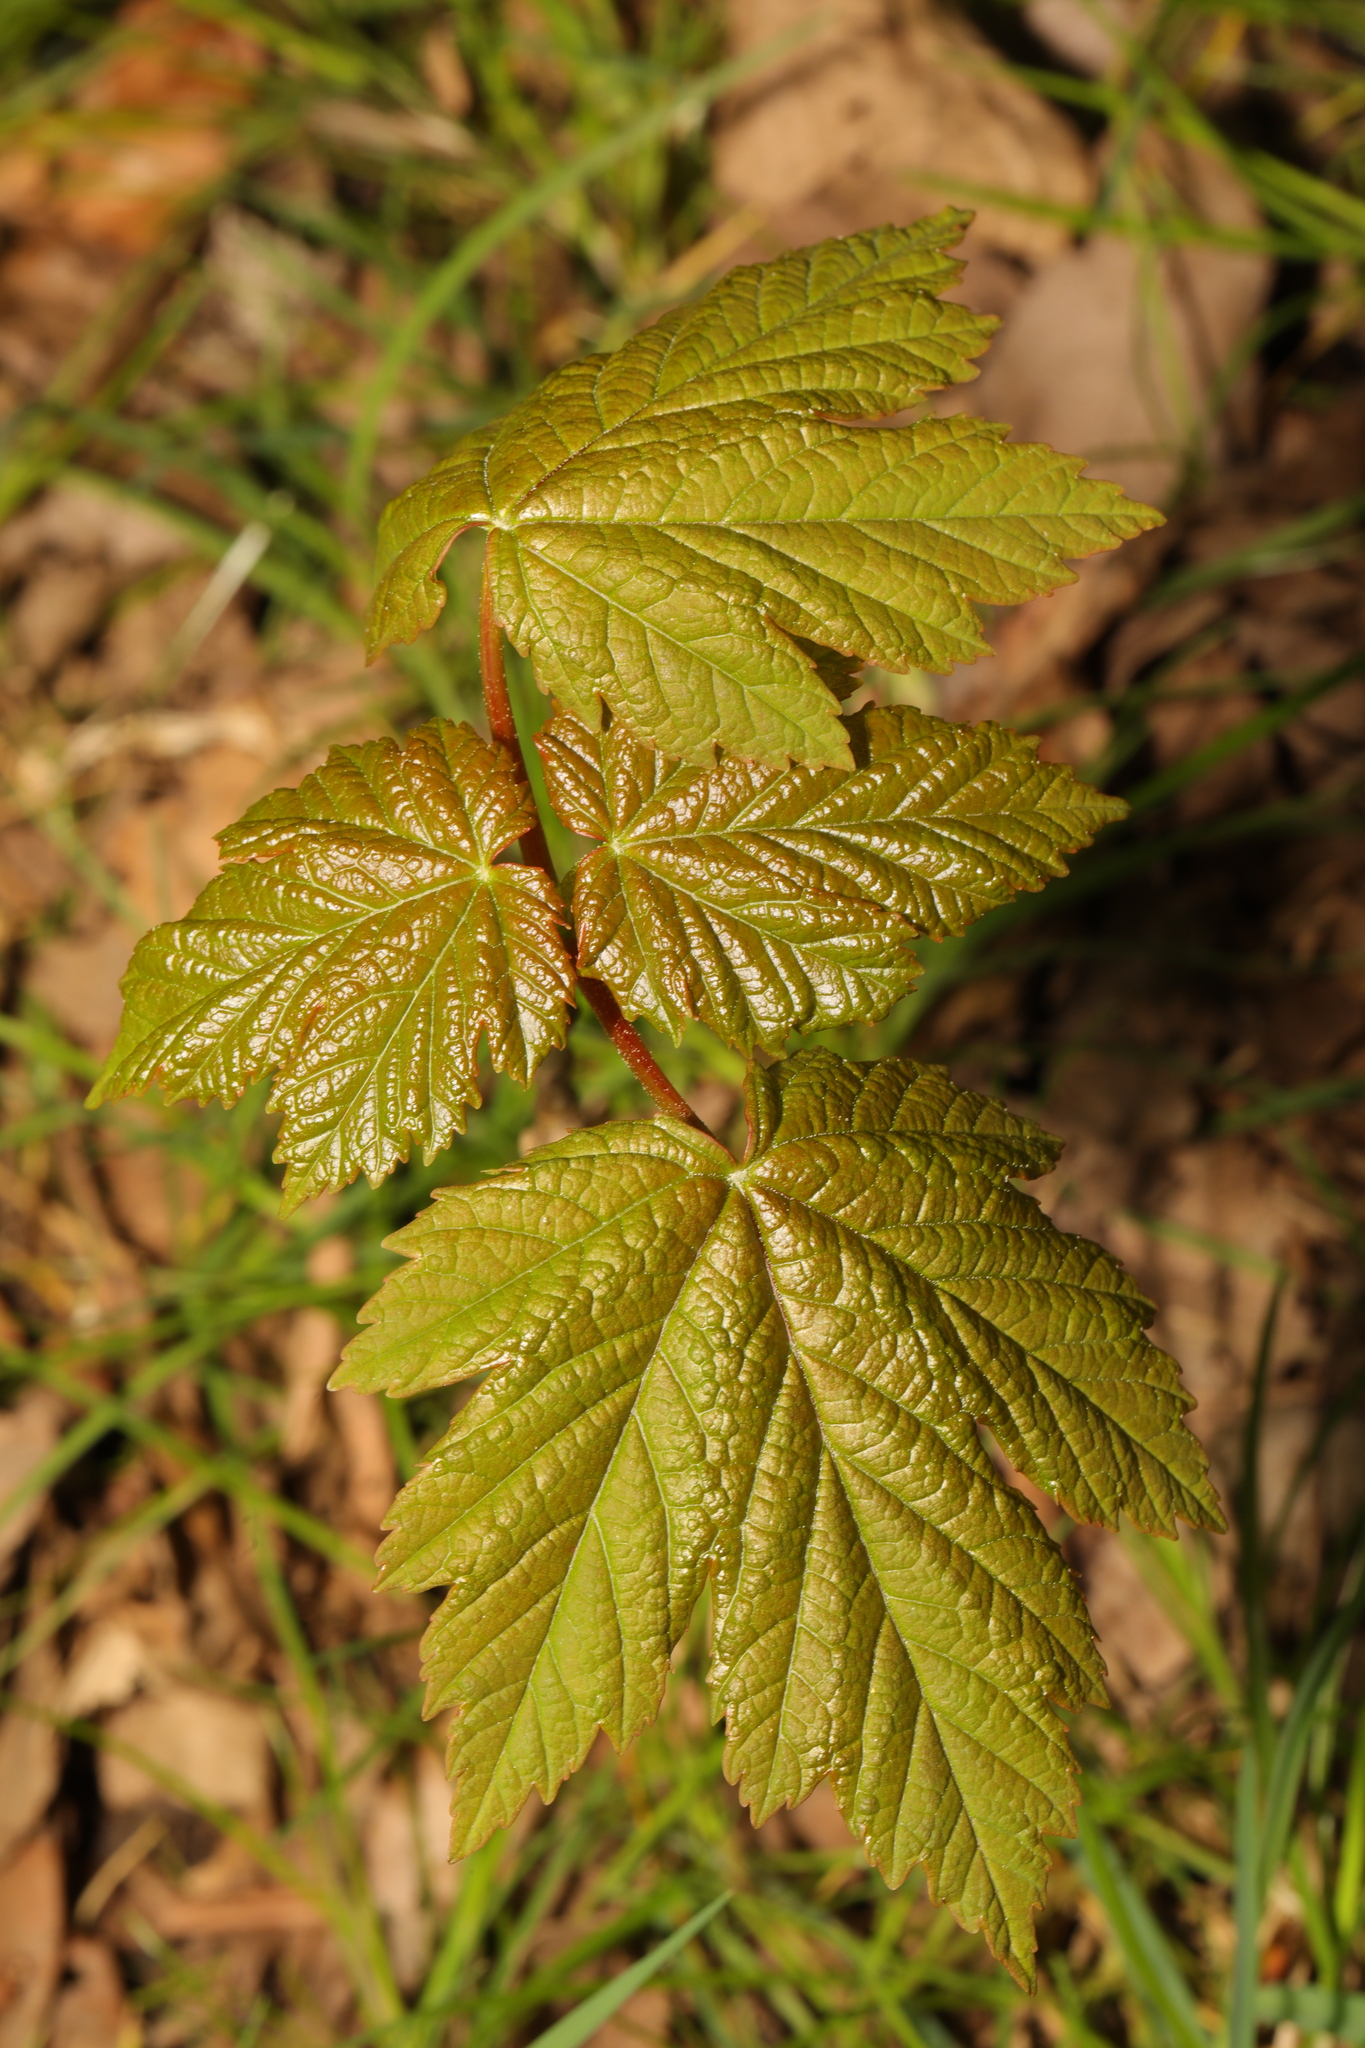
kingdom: Plantae
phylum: Tracheophyta
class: Magnoliopsida
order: Sapindales
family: Sapindaceae
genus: Acer
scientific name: Acer pseudoplatanus
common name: Sycamore
